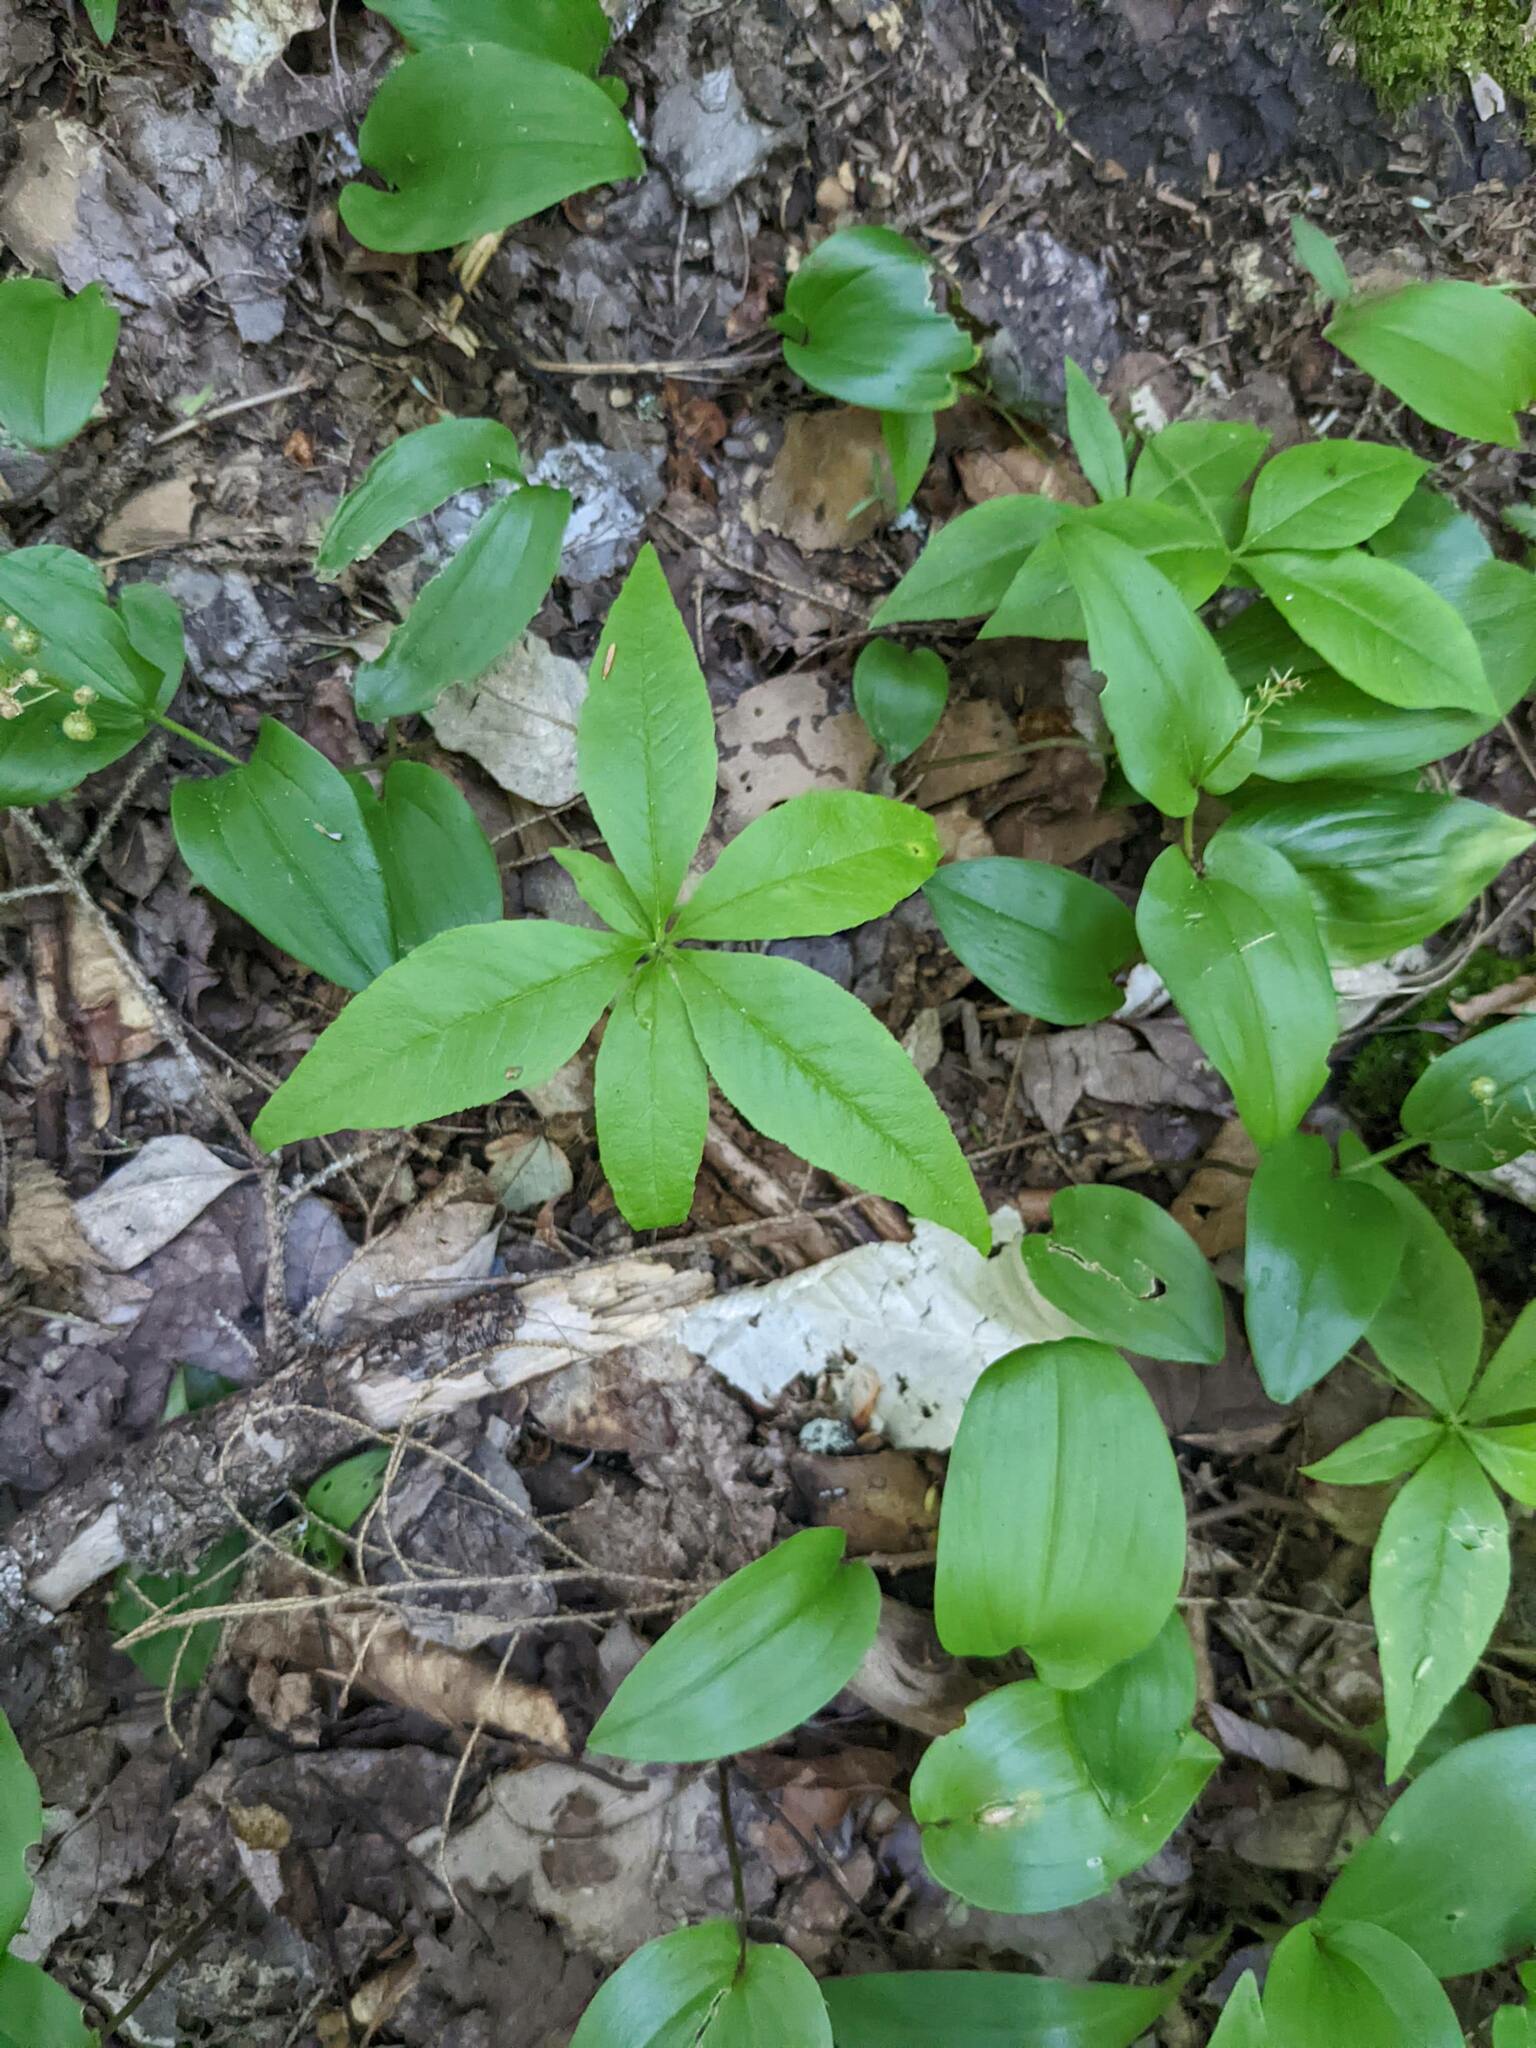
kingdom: Plantae
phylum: Tracheophyta
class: Magnoliopsida
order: Ericales
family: Primulaceae
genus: Lysimachia
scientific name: Lysimachia borealis
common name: American starflower
